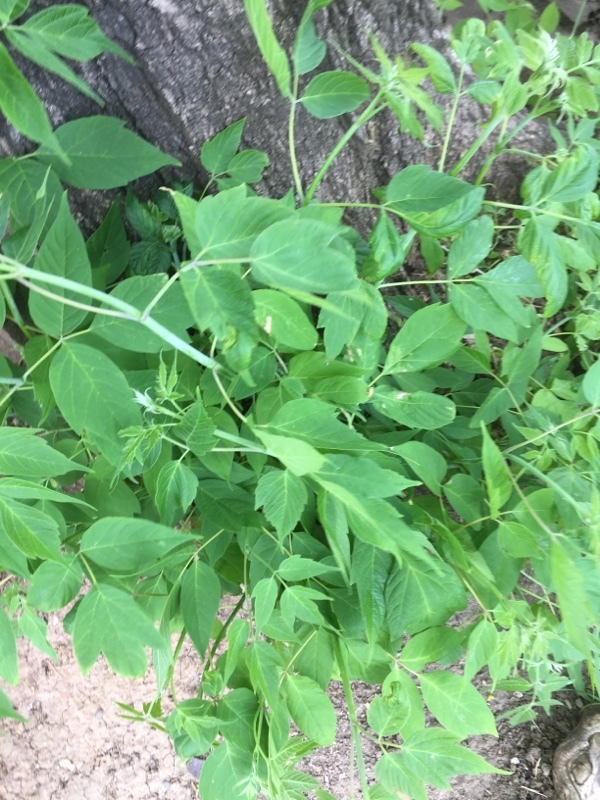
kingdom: Plantae
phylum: Tracheophyta
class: Magnoliopsida
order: Sapindales
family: Sapindaceae
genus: Acer
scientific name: Acer negundo
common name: Ashleaf maple
